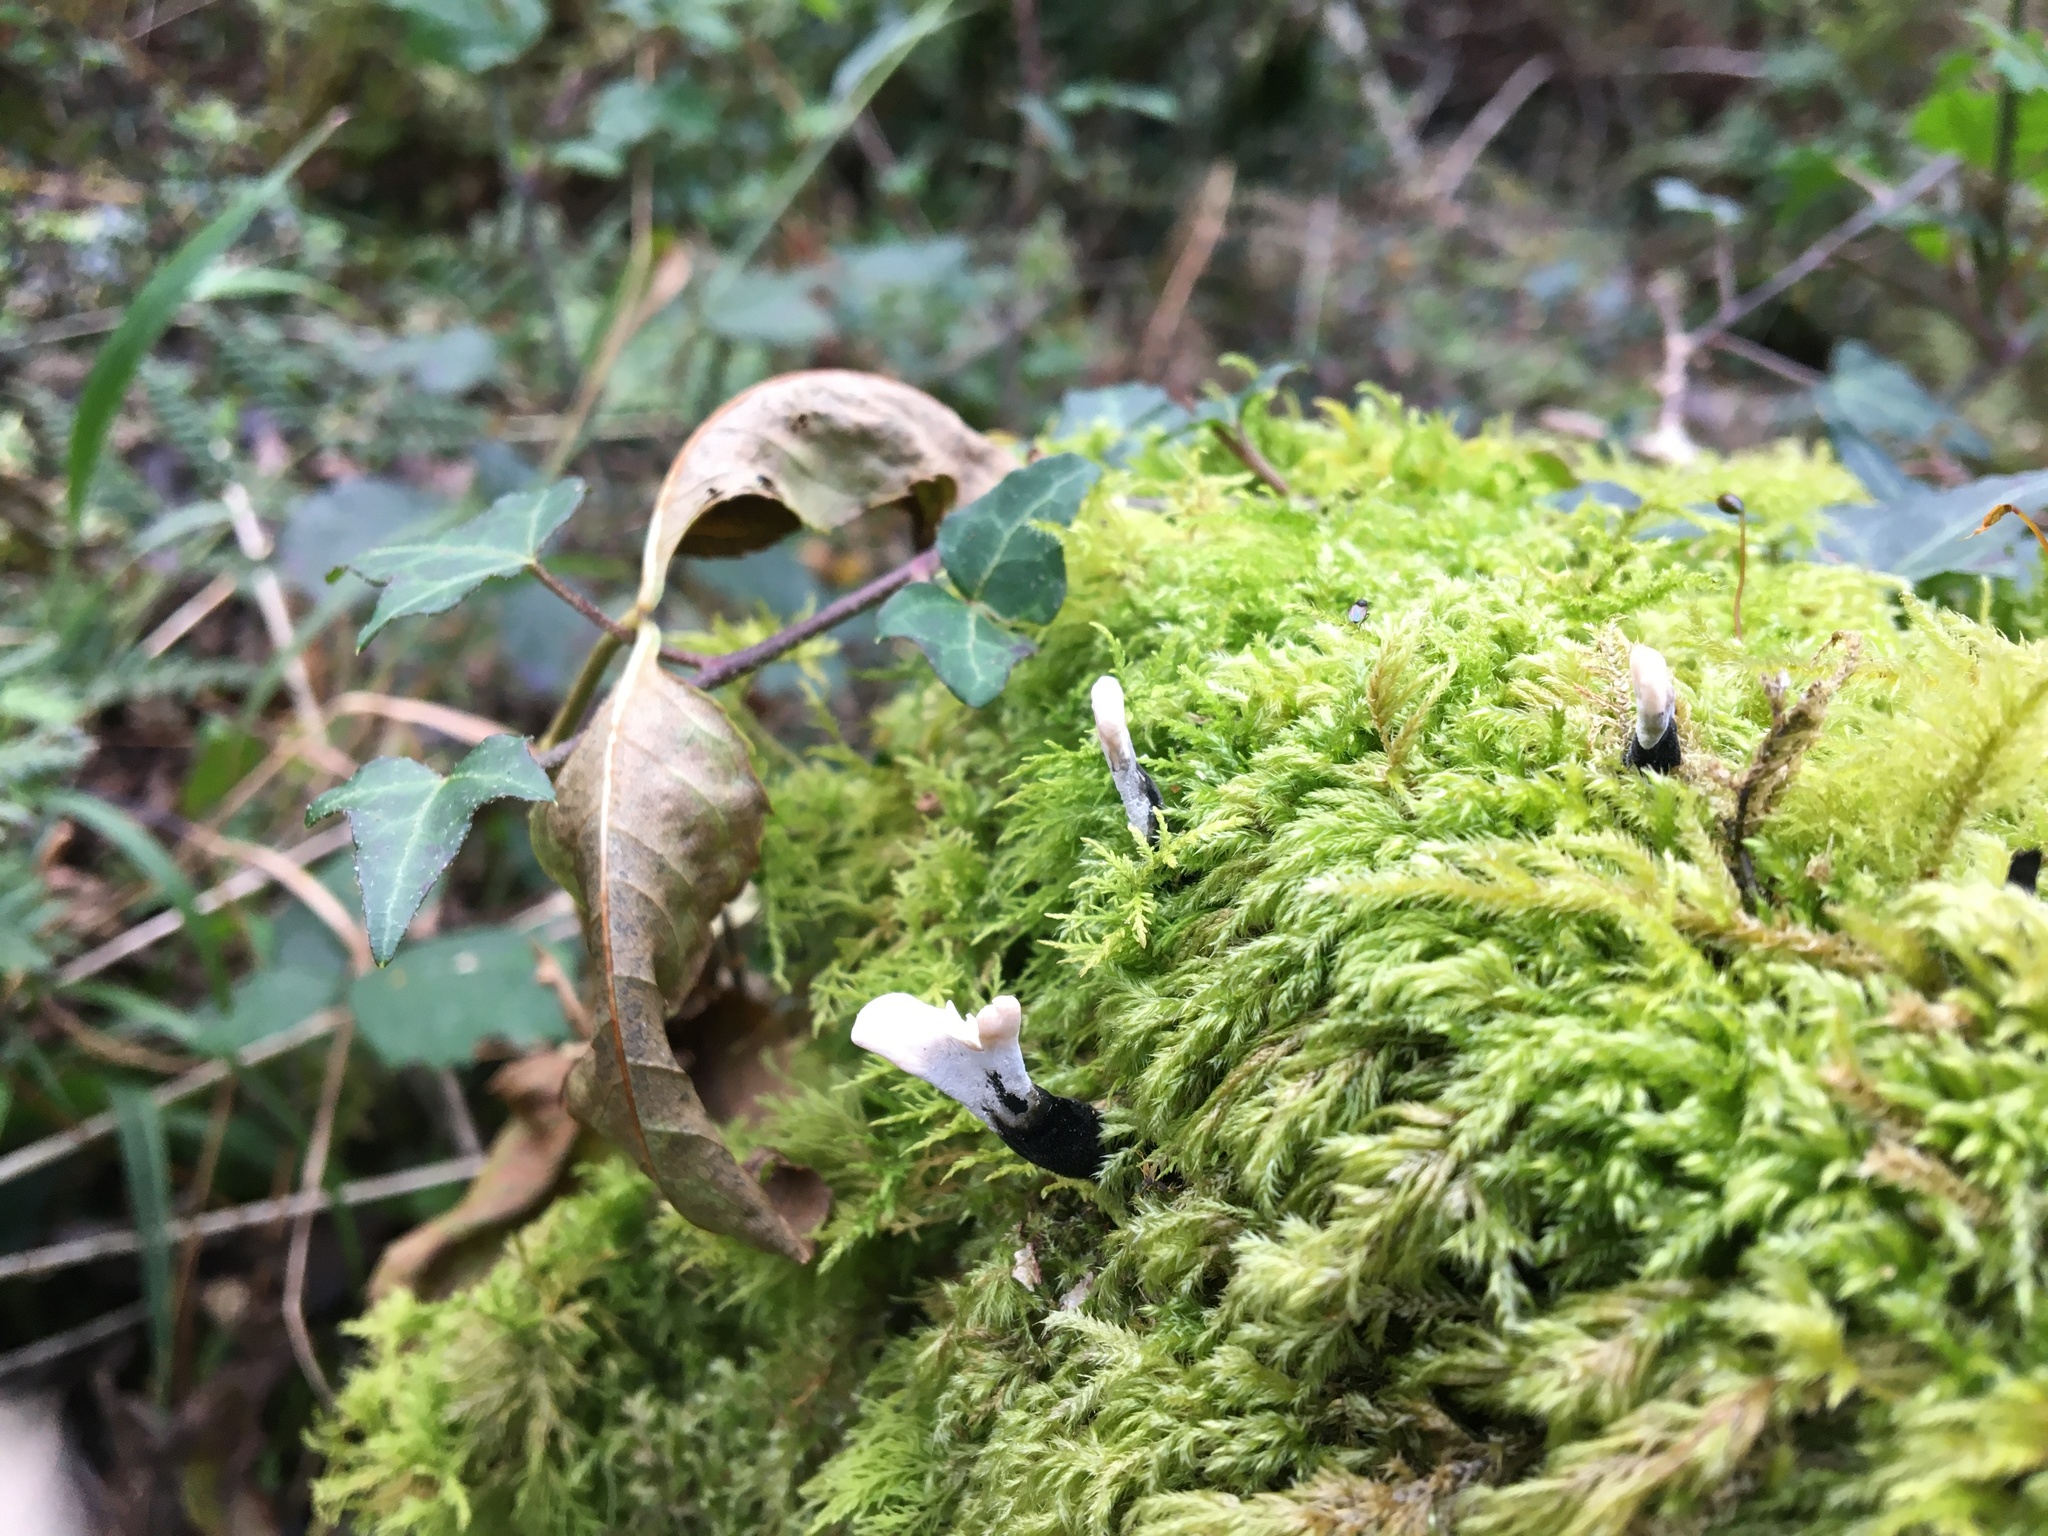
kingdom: Fungi
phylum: Ascomycota
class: Sordariomycetes
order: Xylariales
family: Xylariaceae
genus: Xylaria
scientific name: Xylaria hypoxylon
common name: Candle-snuff fungus
